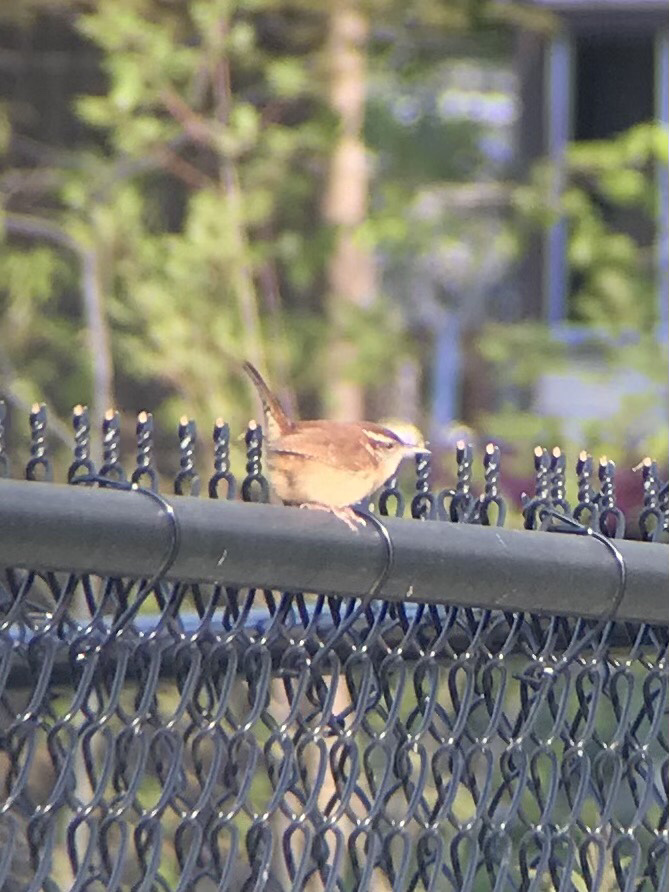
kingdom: Animalia
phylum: Chordata
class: Aves
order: Passeriformes
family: Troglodytidae
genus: Thryothorus
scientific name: Thryothorus ludovicianus
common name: Carolina wren
